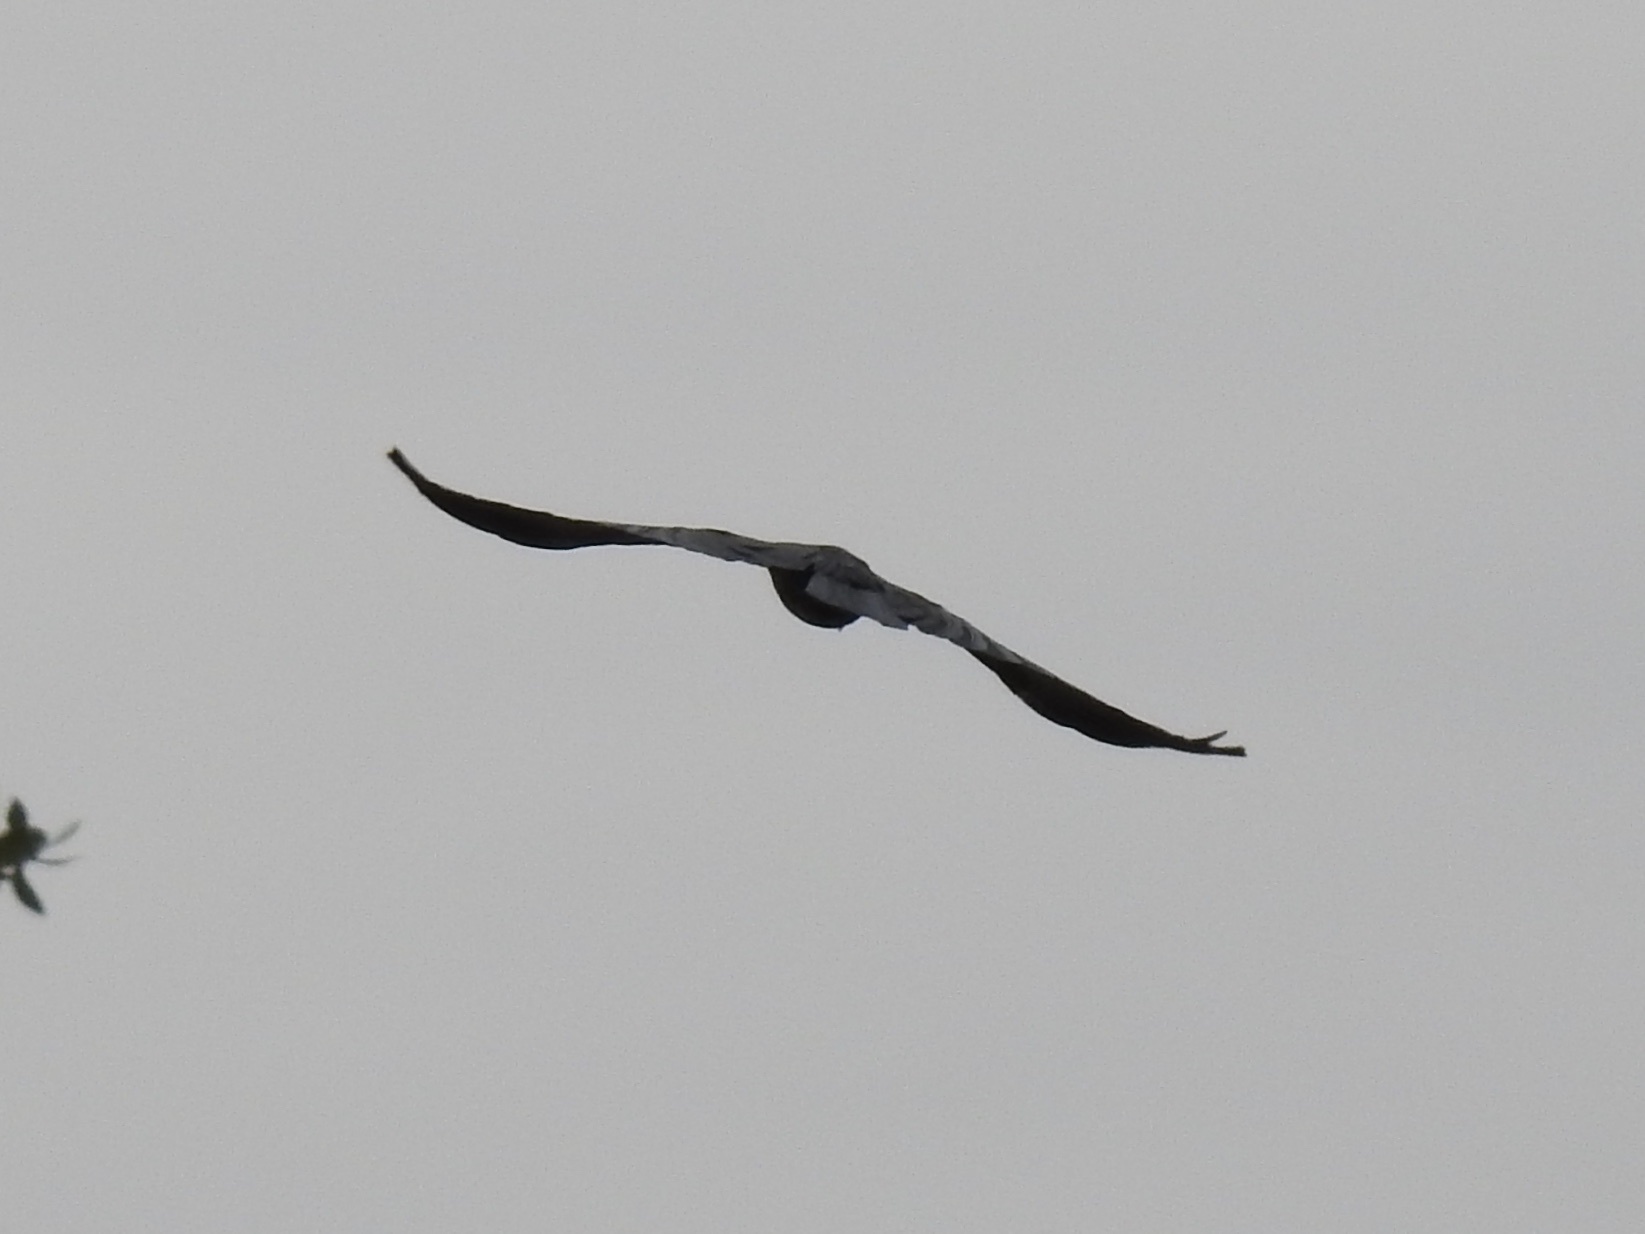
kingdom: Animalia
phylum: Chordata
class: Aves
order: Passeriformes
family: Corvidae
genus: Corvus
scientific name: Corvus
